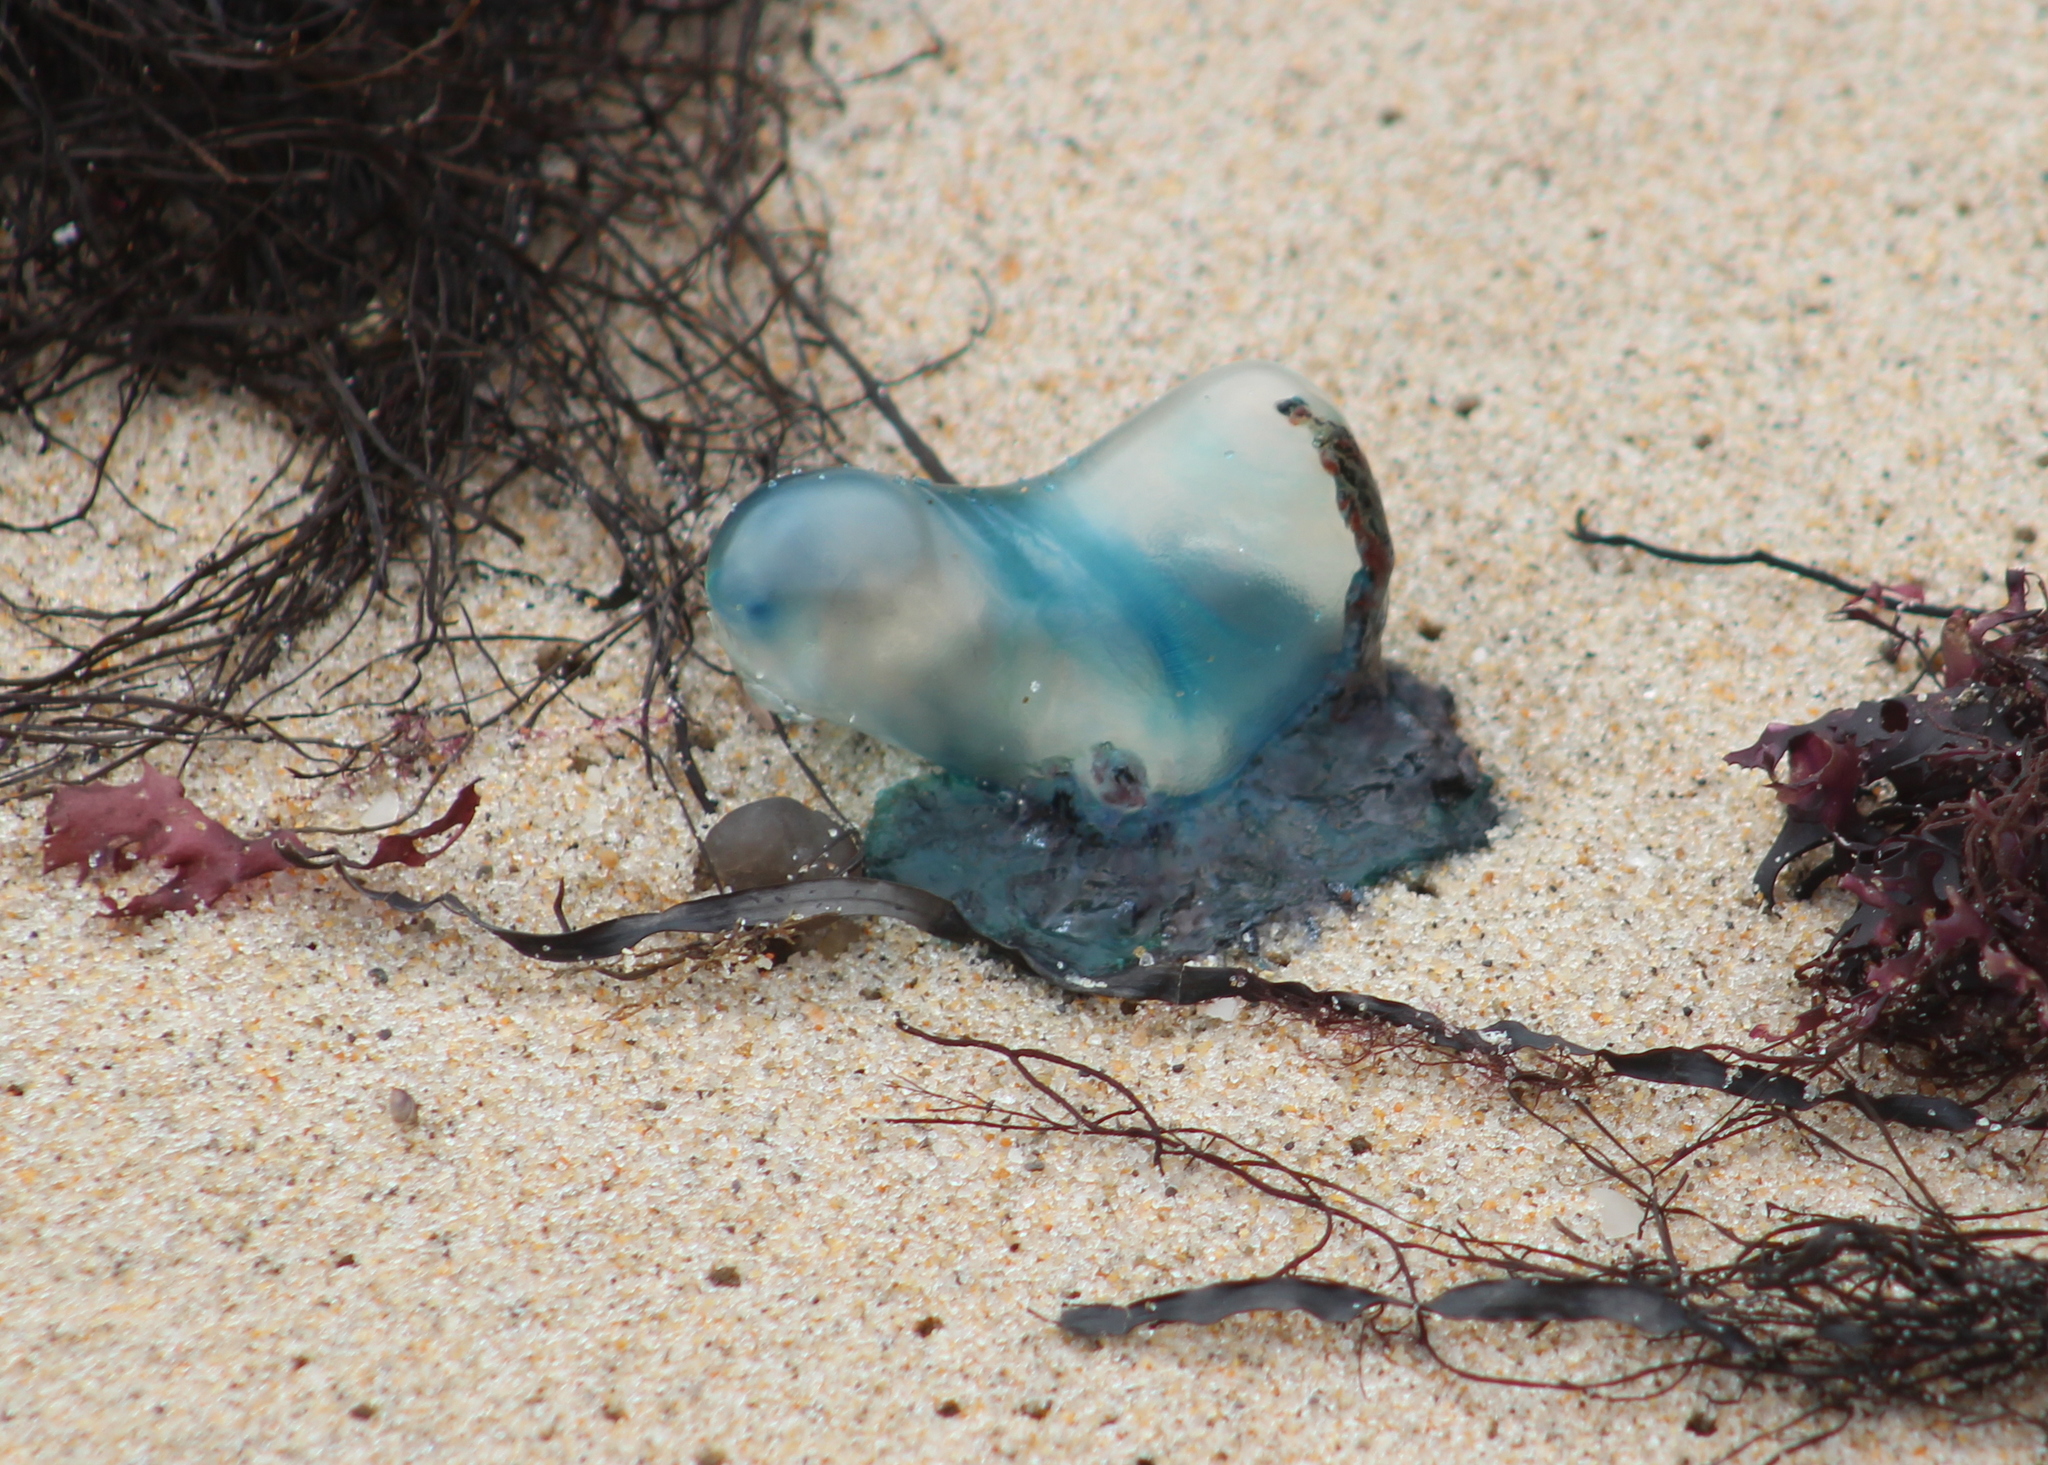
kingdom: Animalia
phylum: Cnidaria
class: Hydrozoa
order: Siphonophorae
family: Physaliidae
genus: Physalia
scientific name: Physalia physalis
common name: Portuguese man-of-war
